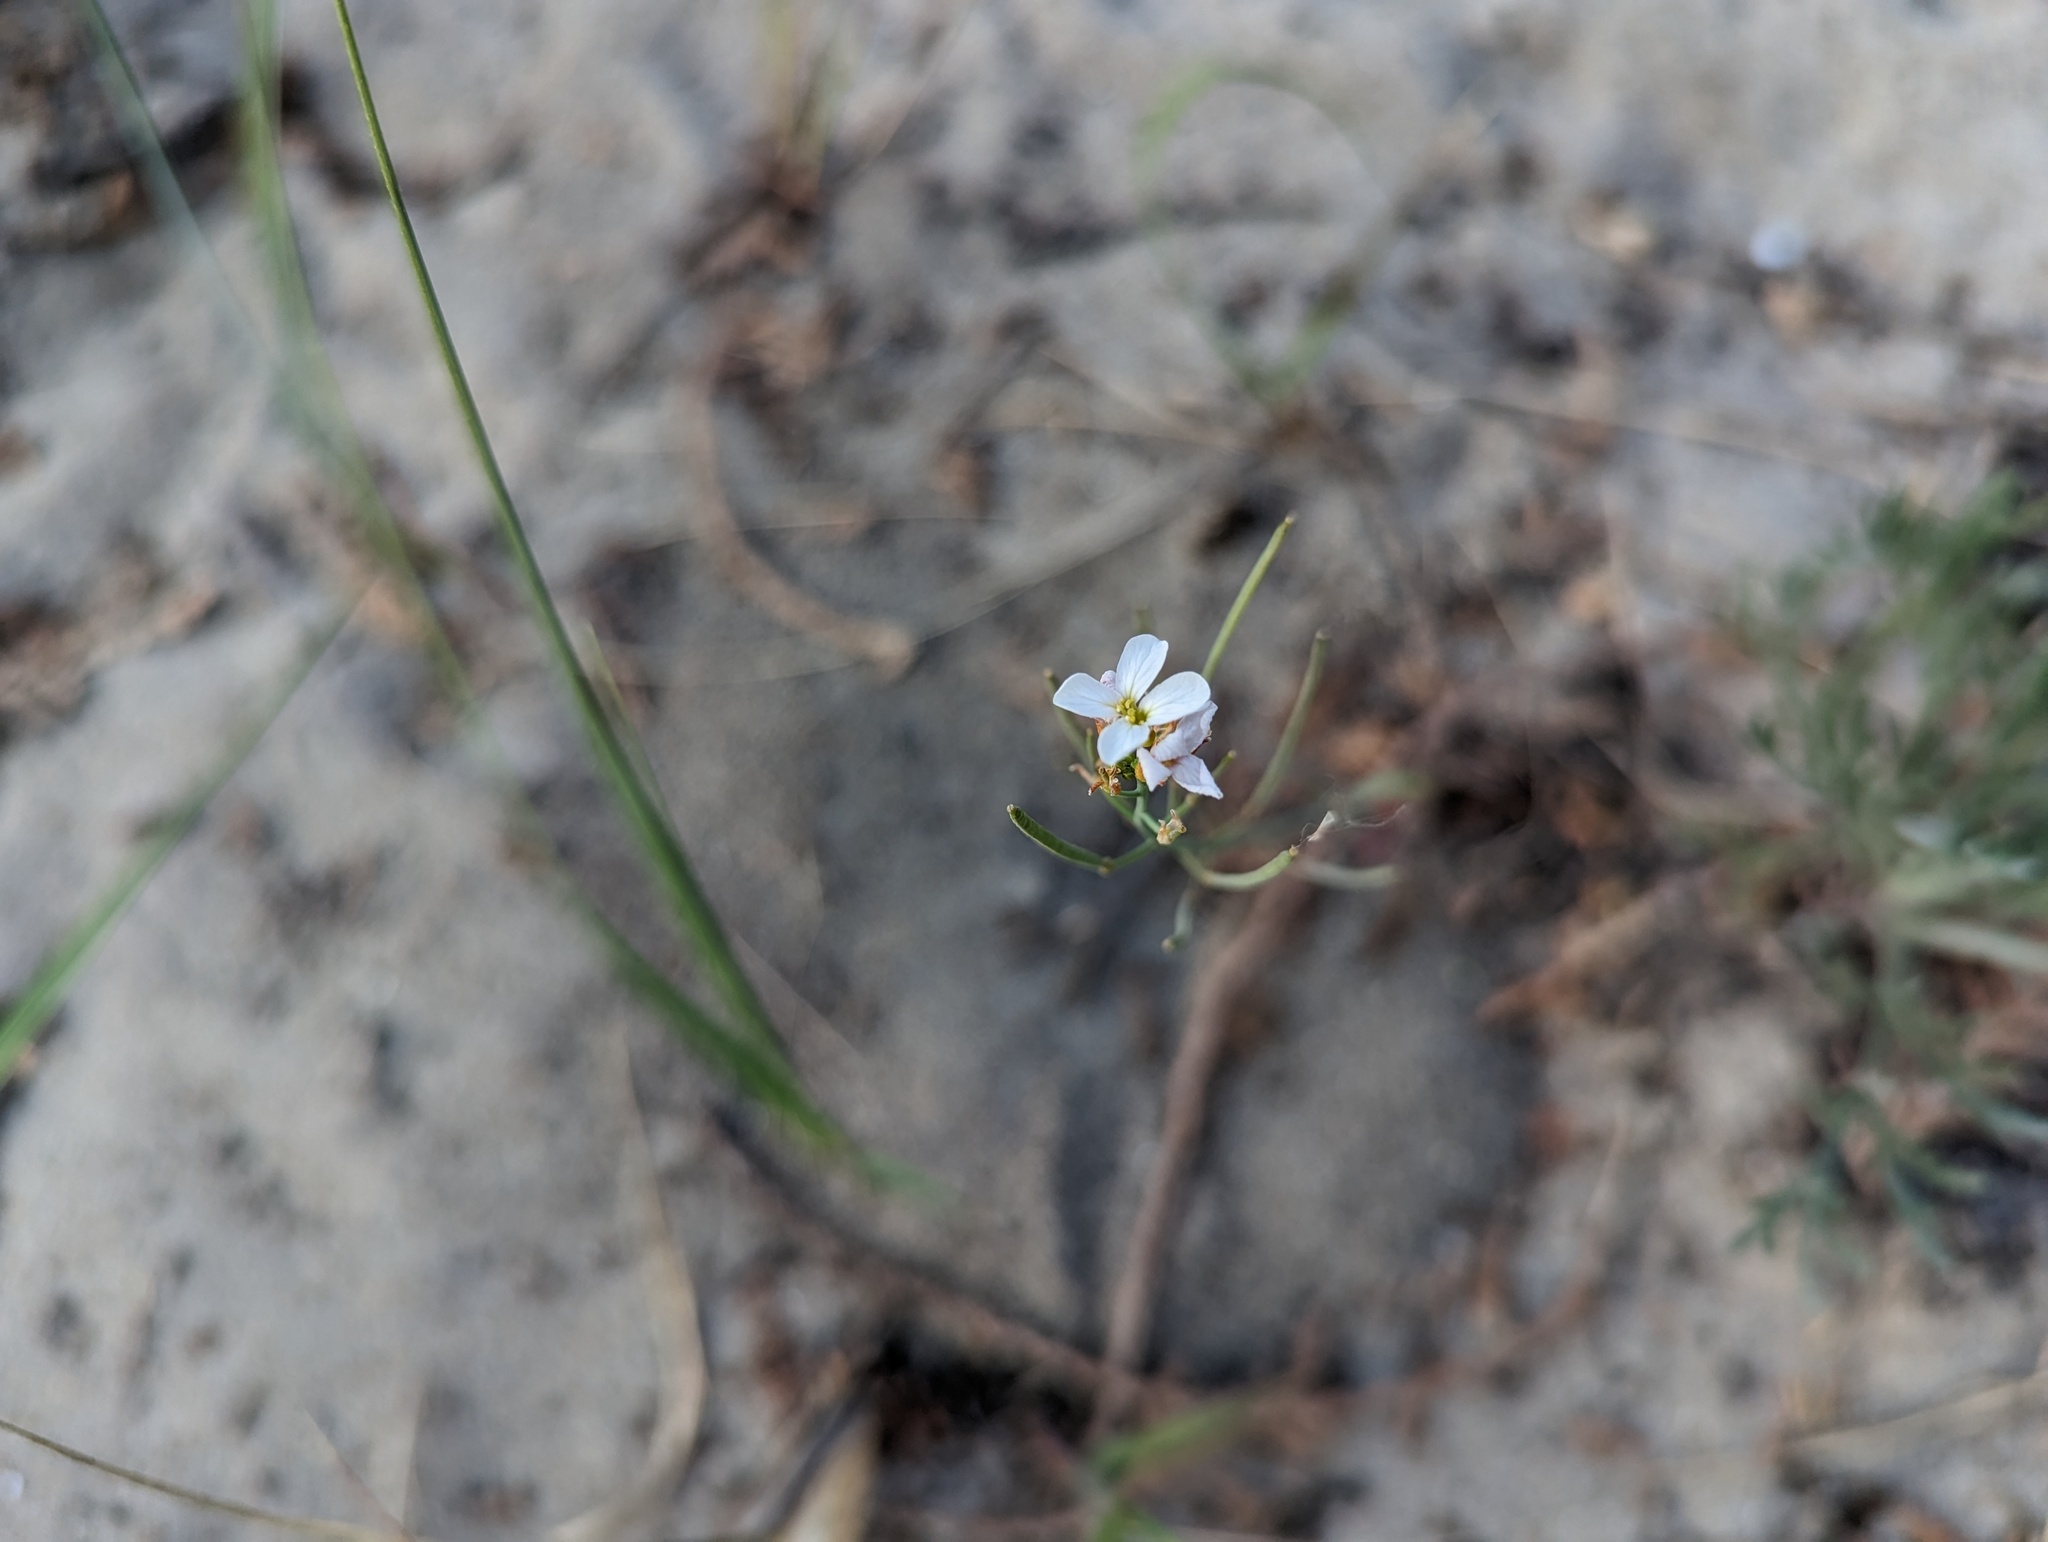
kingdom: Plantae
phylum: Tracheophyta
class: Magnoliopsida
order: Brassicales
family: Brassicaceae
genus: Arabidopsis
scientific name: Arabidopsis lyrata
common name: Lyrate rockcress
